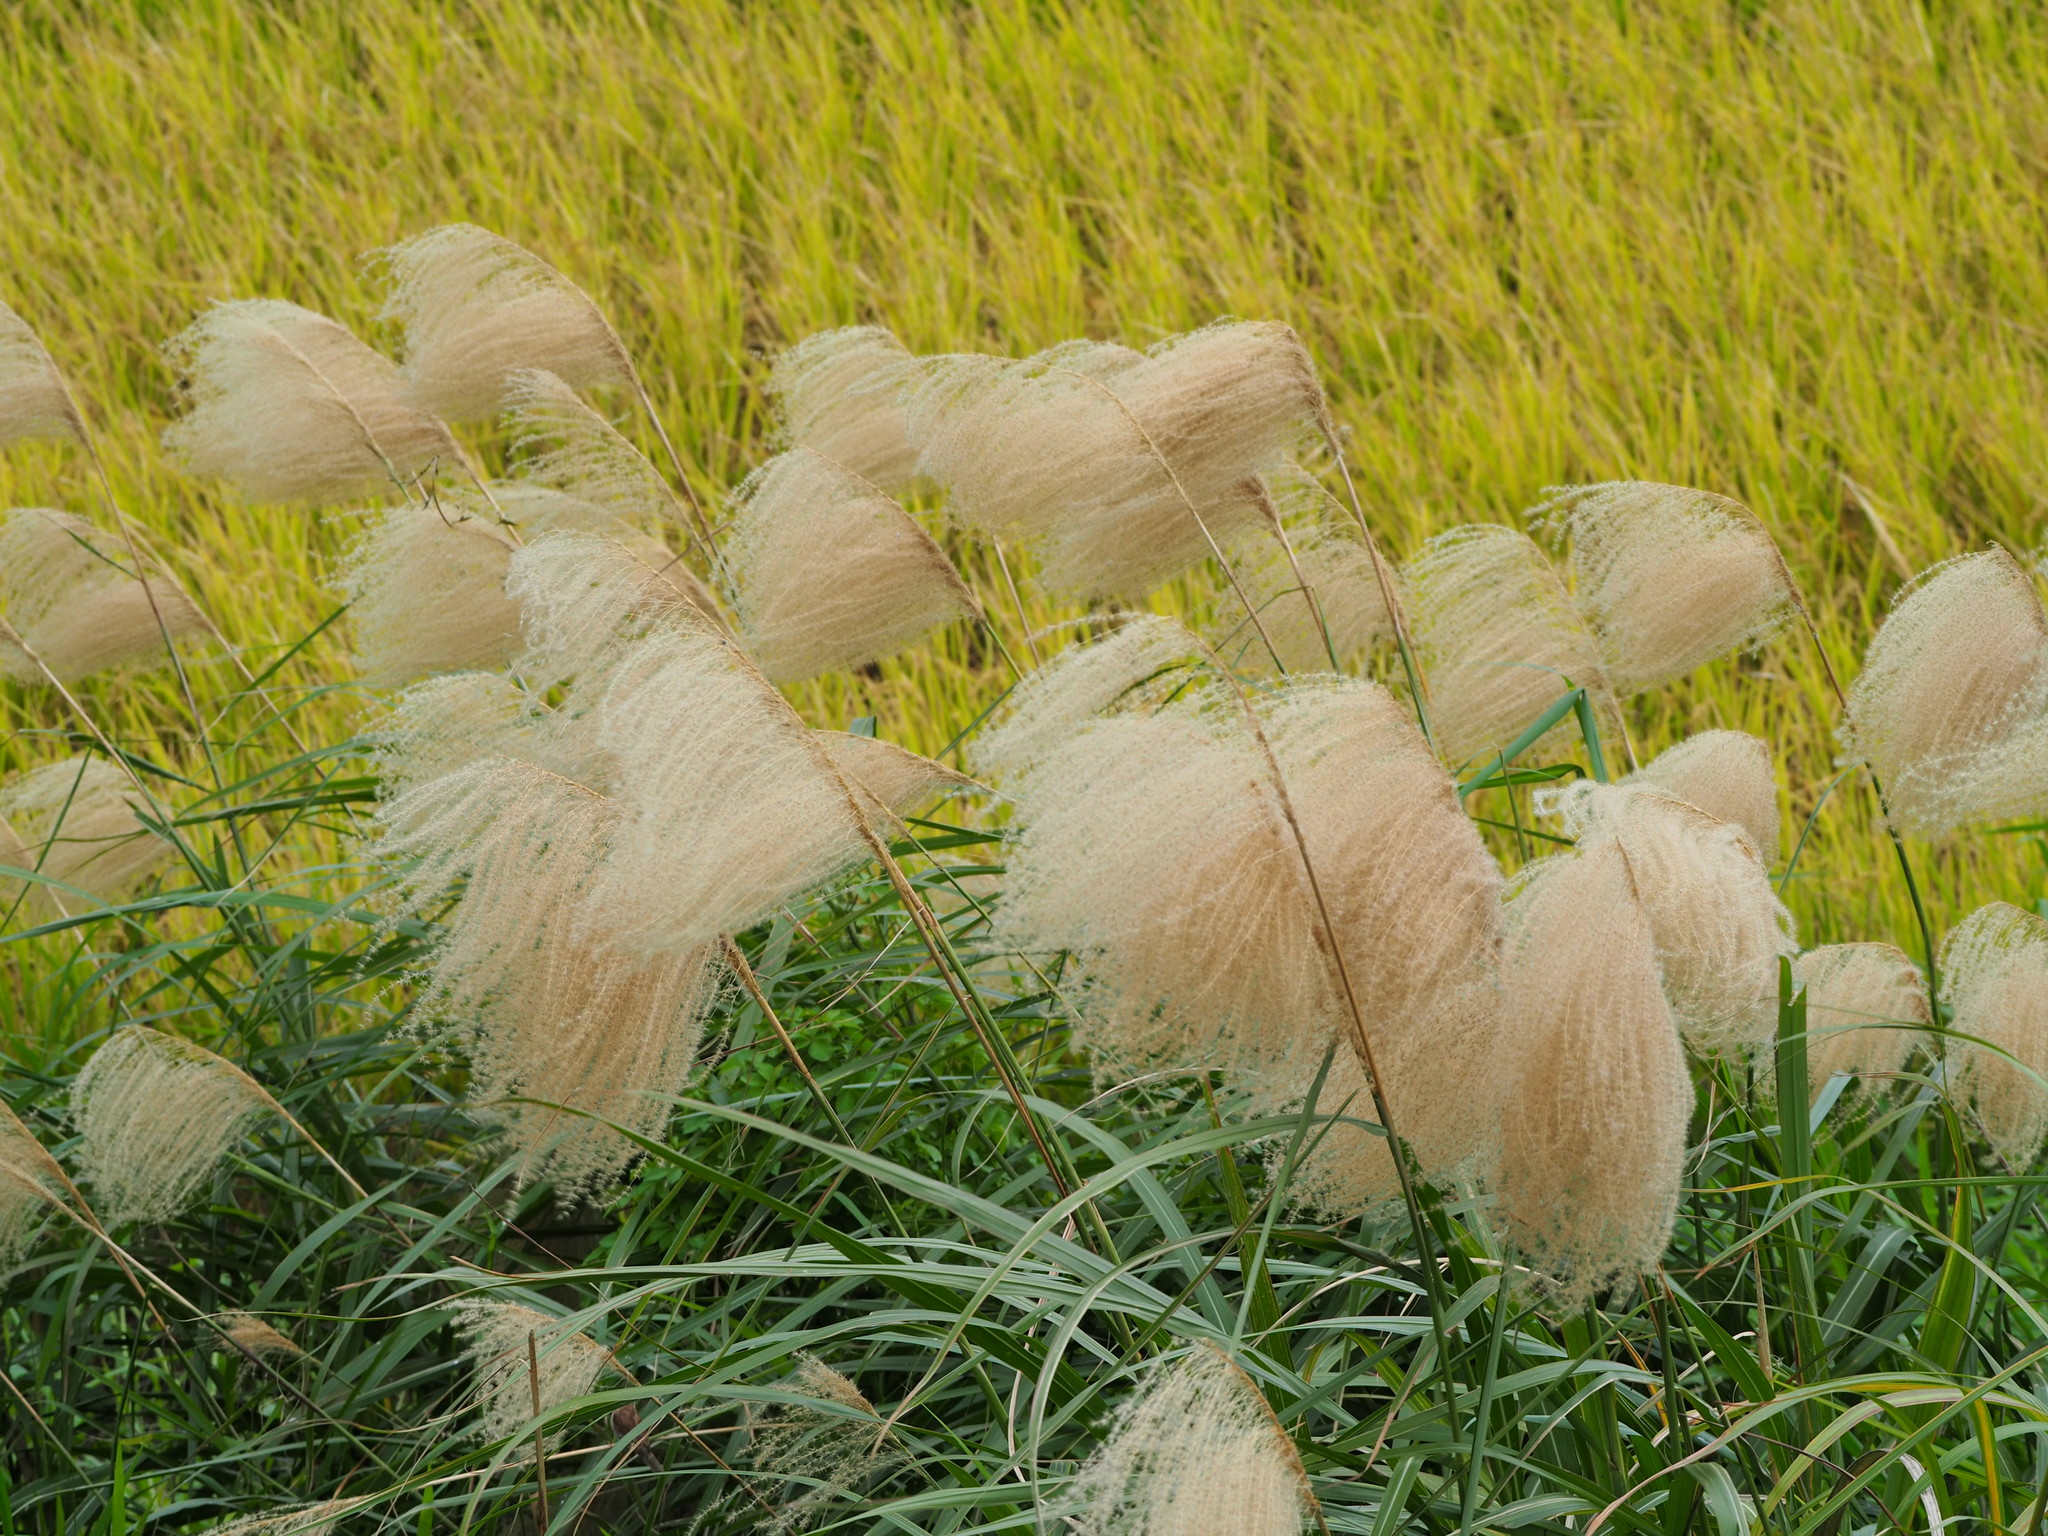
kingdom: Plantae
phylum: Tracheophyta
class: Liliopsida
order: Poales
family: Poaceae
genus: Miscanthus
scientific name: Miscanthus sinensis
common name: Chinese silvergrass
